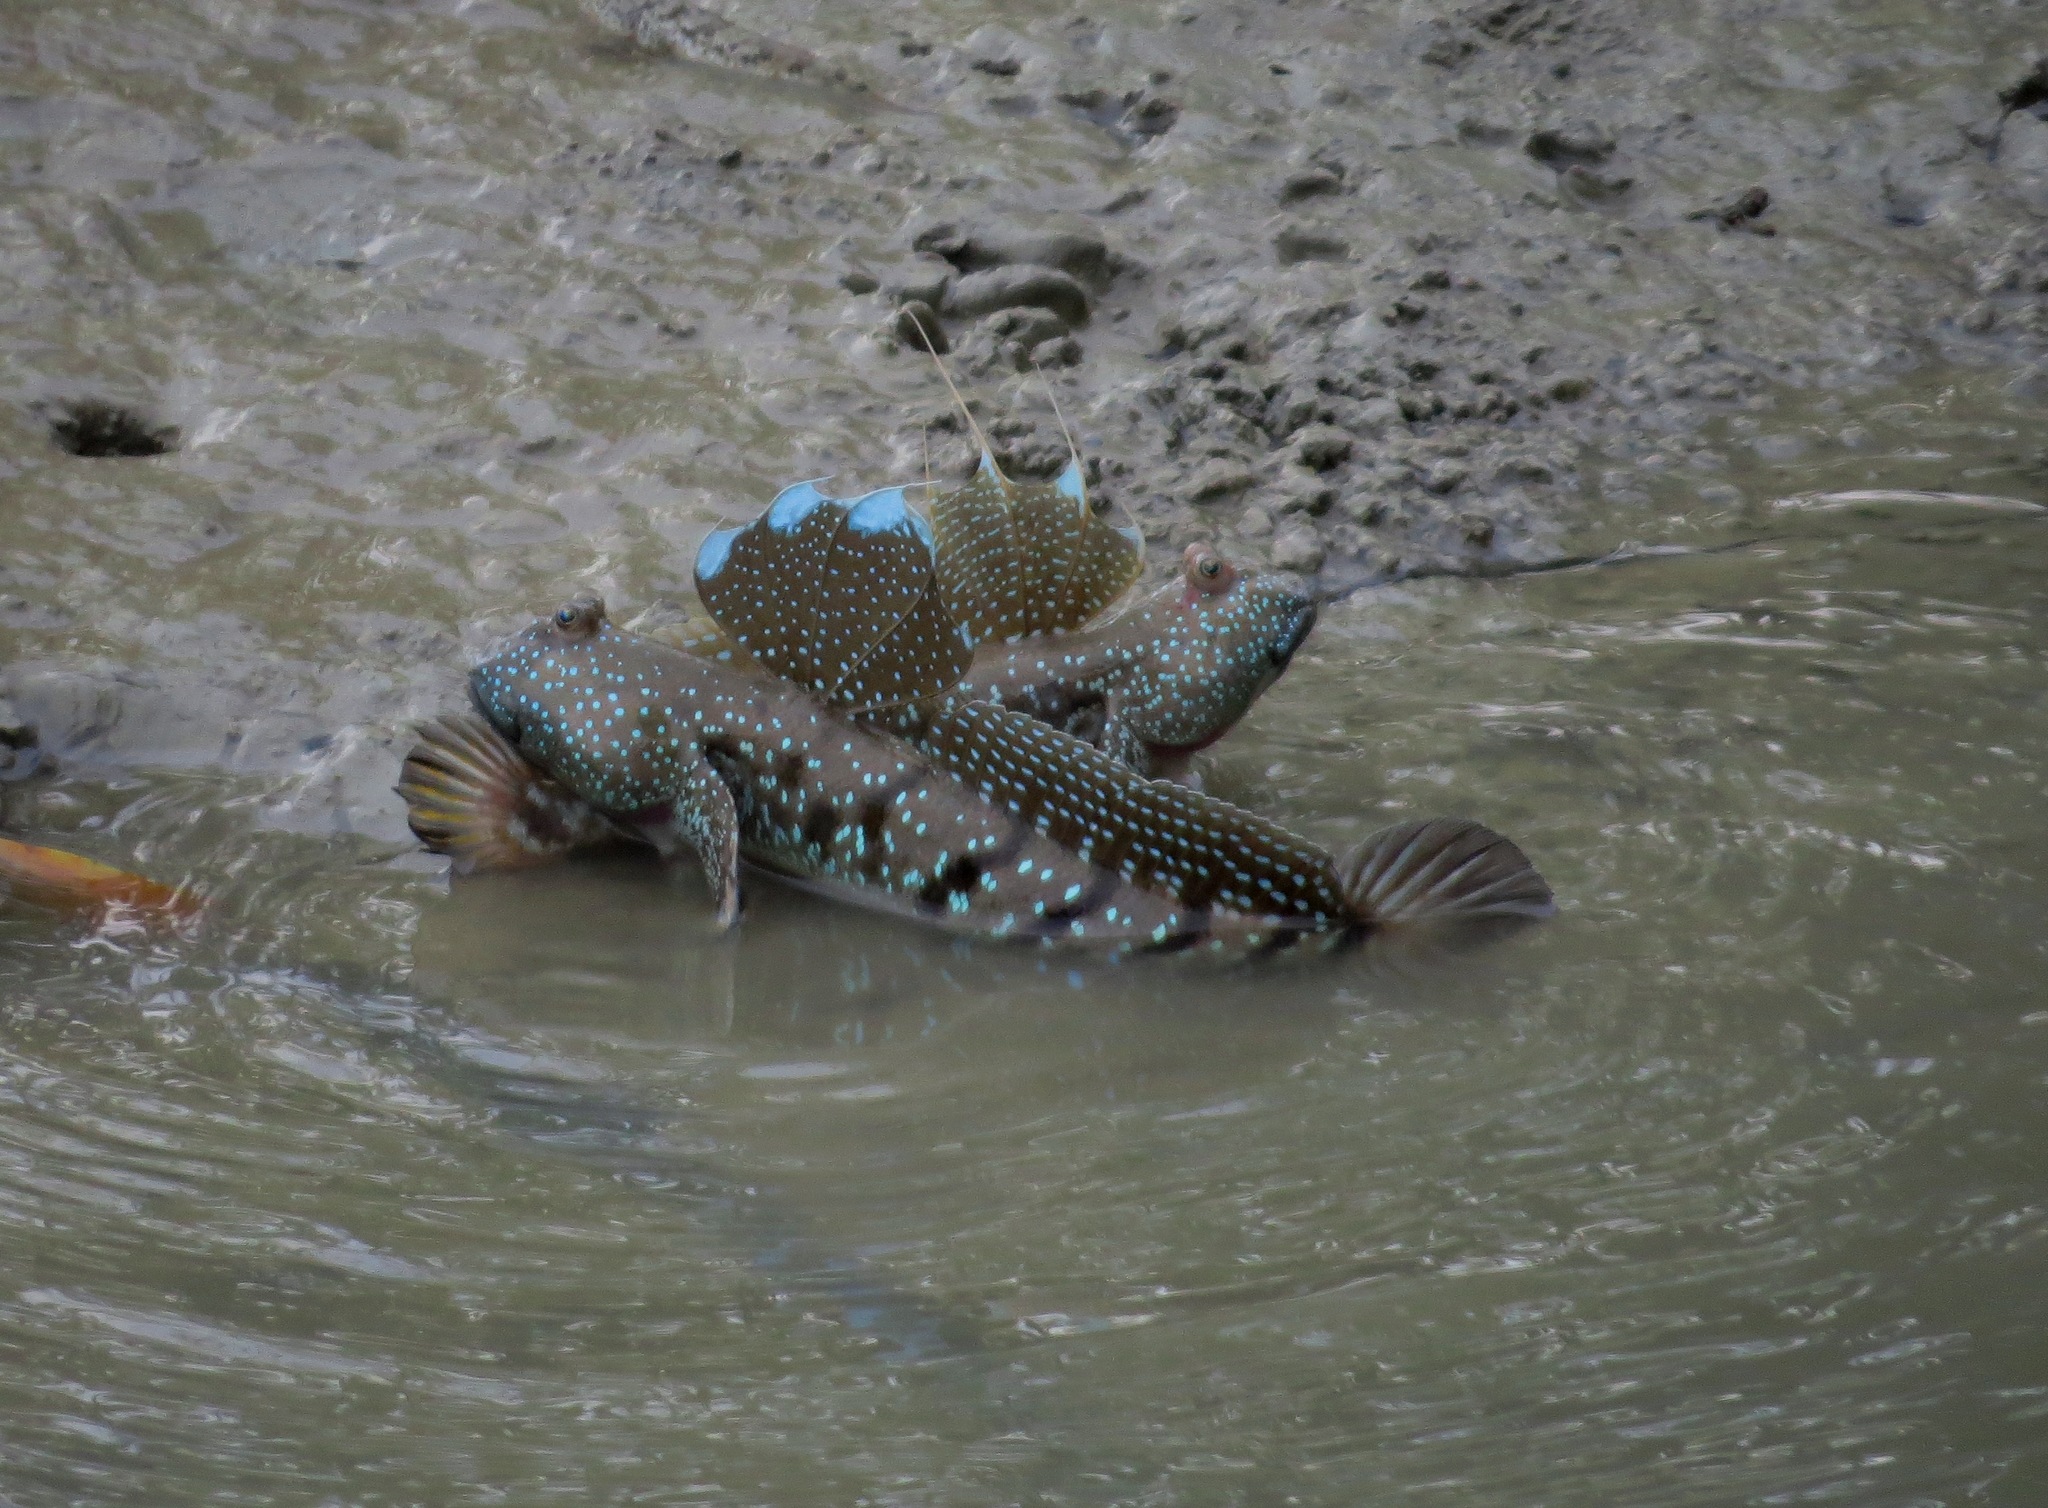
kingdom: Animalia
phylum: Chordata
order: Perciformes
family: Gobiidae
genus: Boleophthalmus
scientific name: Boleophthalmus boddarti
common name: Boddart's goggle-eyed goby
